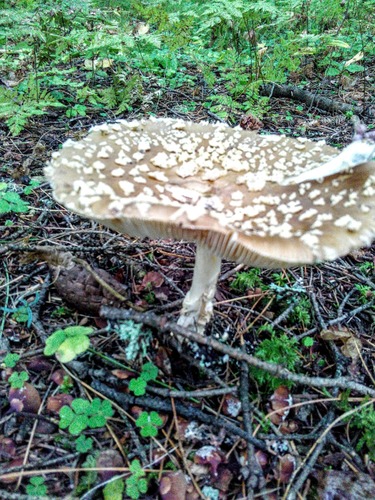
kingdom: Fungi
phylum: Basidiomycota
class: Agaricomycetes
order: Agaricales
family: Amanitaceae
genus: Amanita
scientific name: Amanita pantherina
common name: Panthercap
